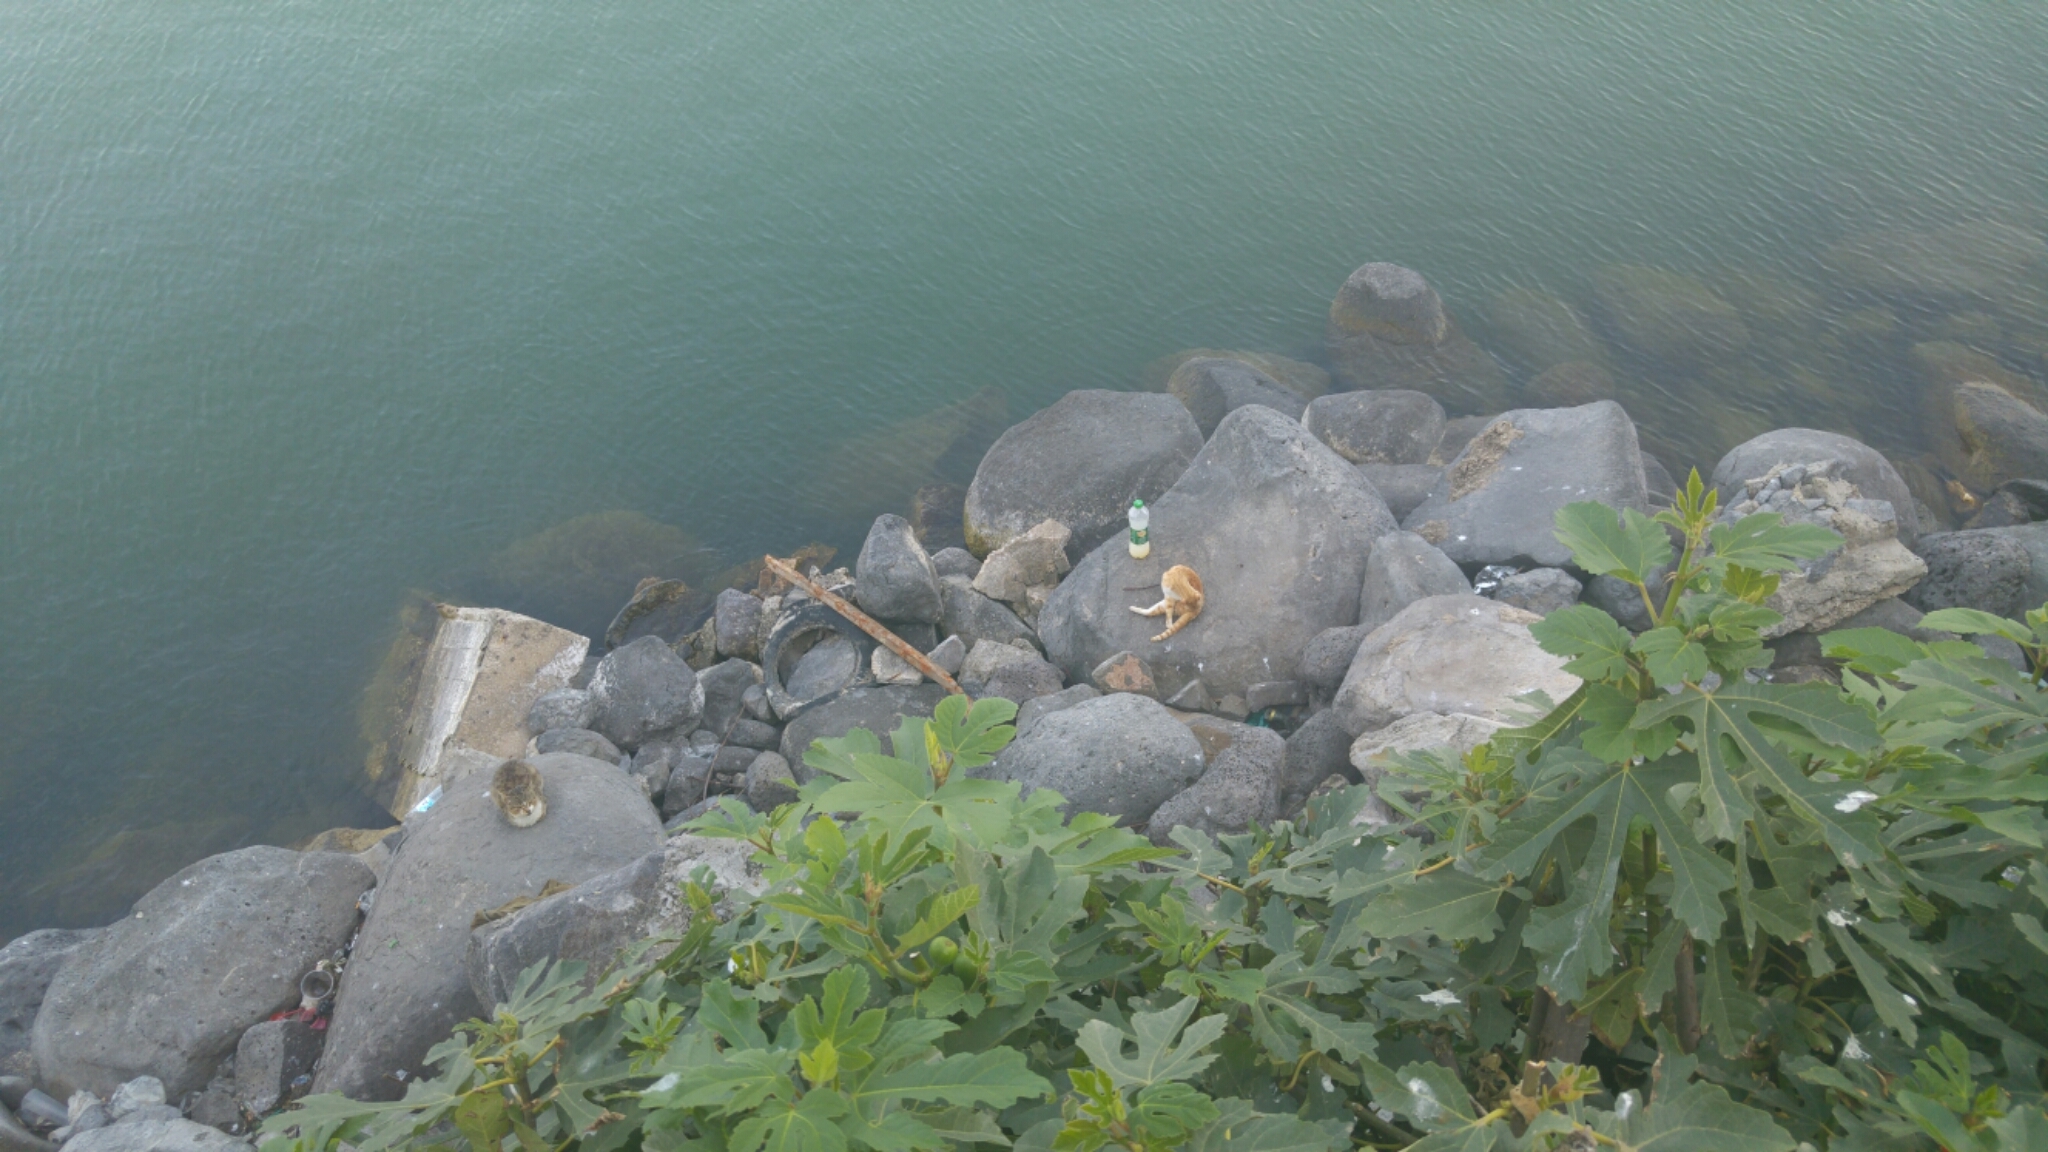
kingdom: Plantae
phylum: Tracheophyta
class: Magnoliopsida
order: Rosales
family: Moraceae
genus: Ficus
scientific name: Ficus carica
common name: Fig
